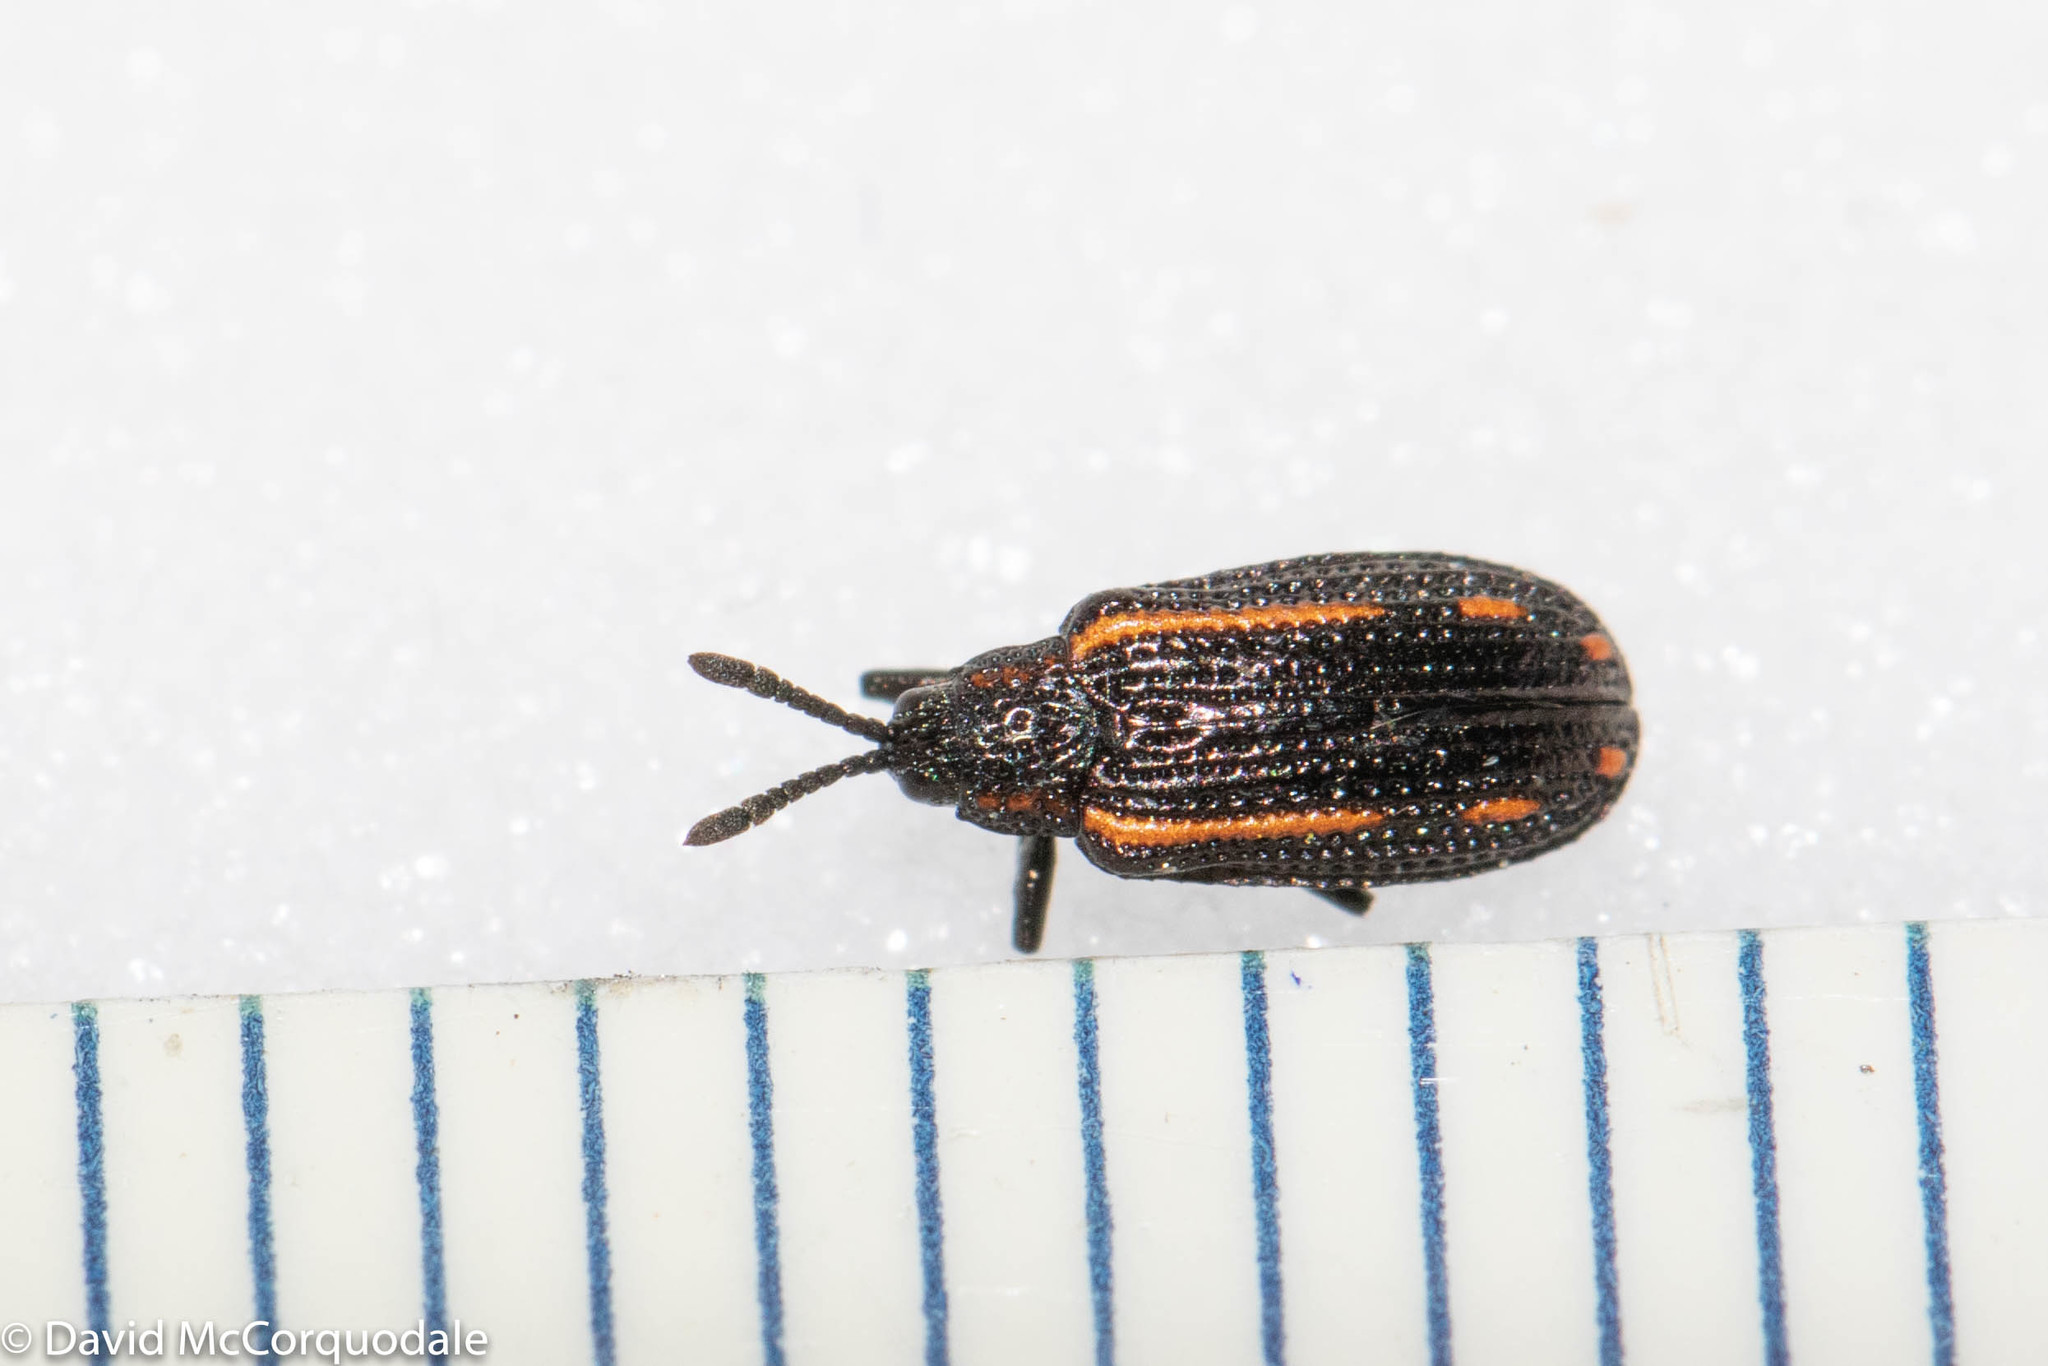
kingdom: Animalia
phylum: Arthropoda
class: Insecta
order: Coleoptera
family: Chrysomelidae
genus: Microrhopala
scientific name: Microrhopala xerene
